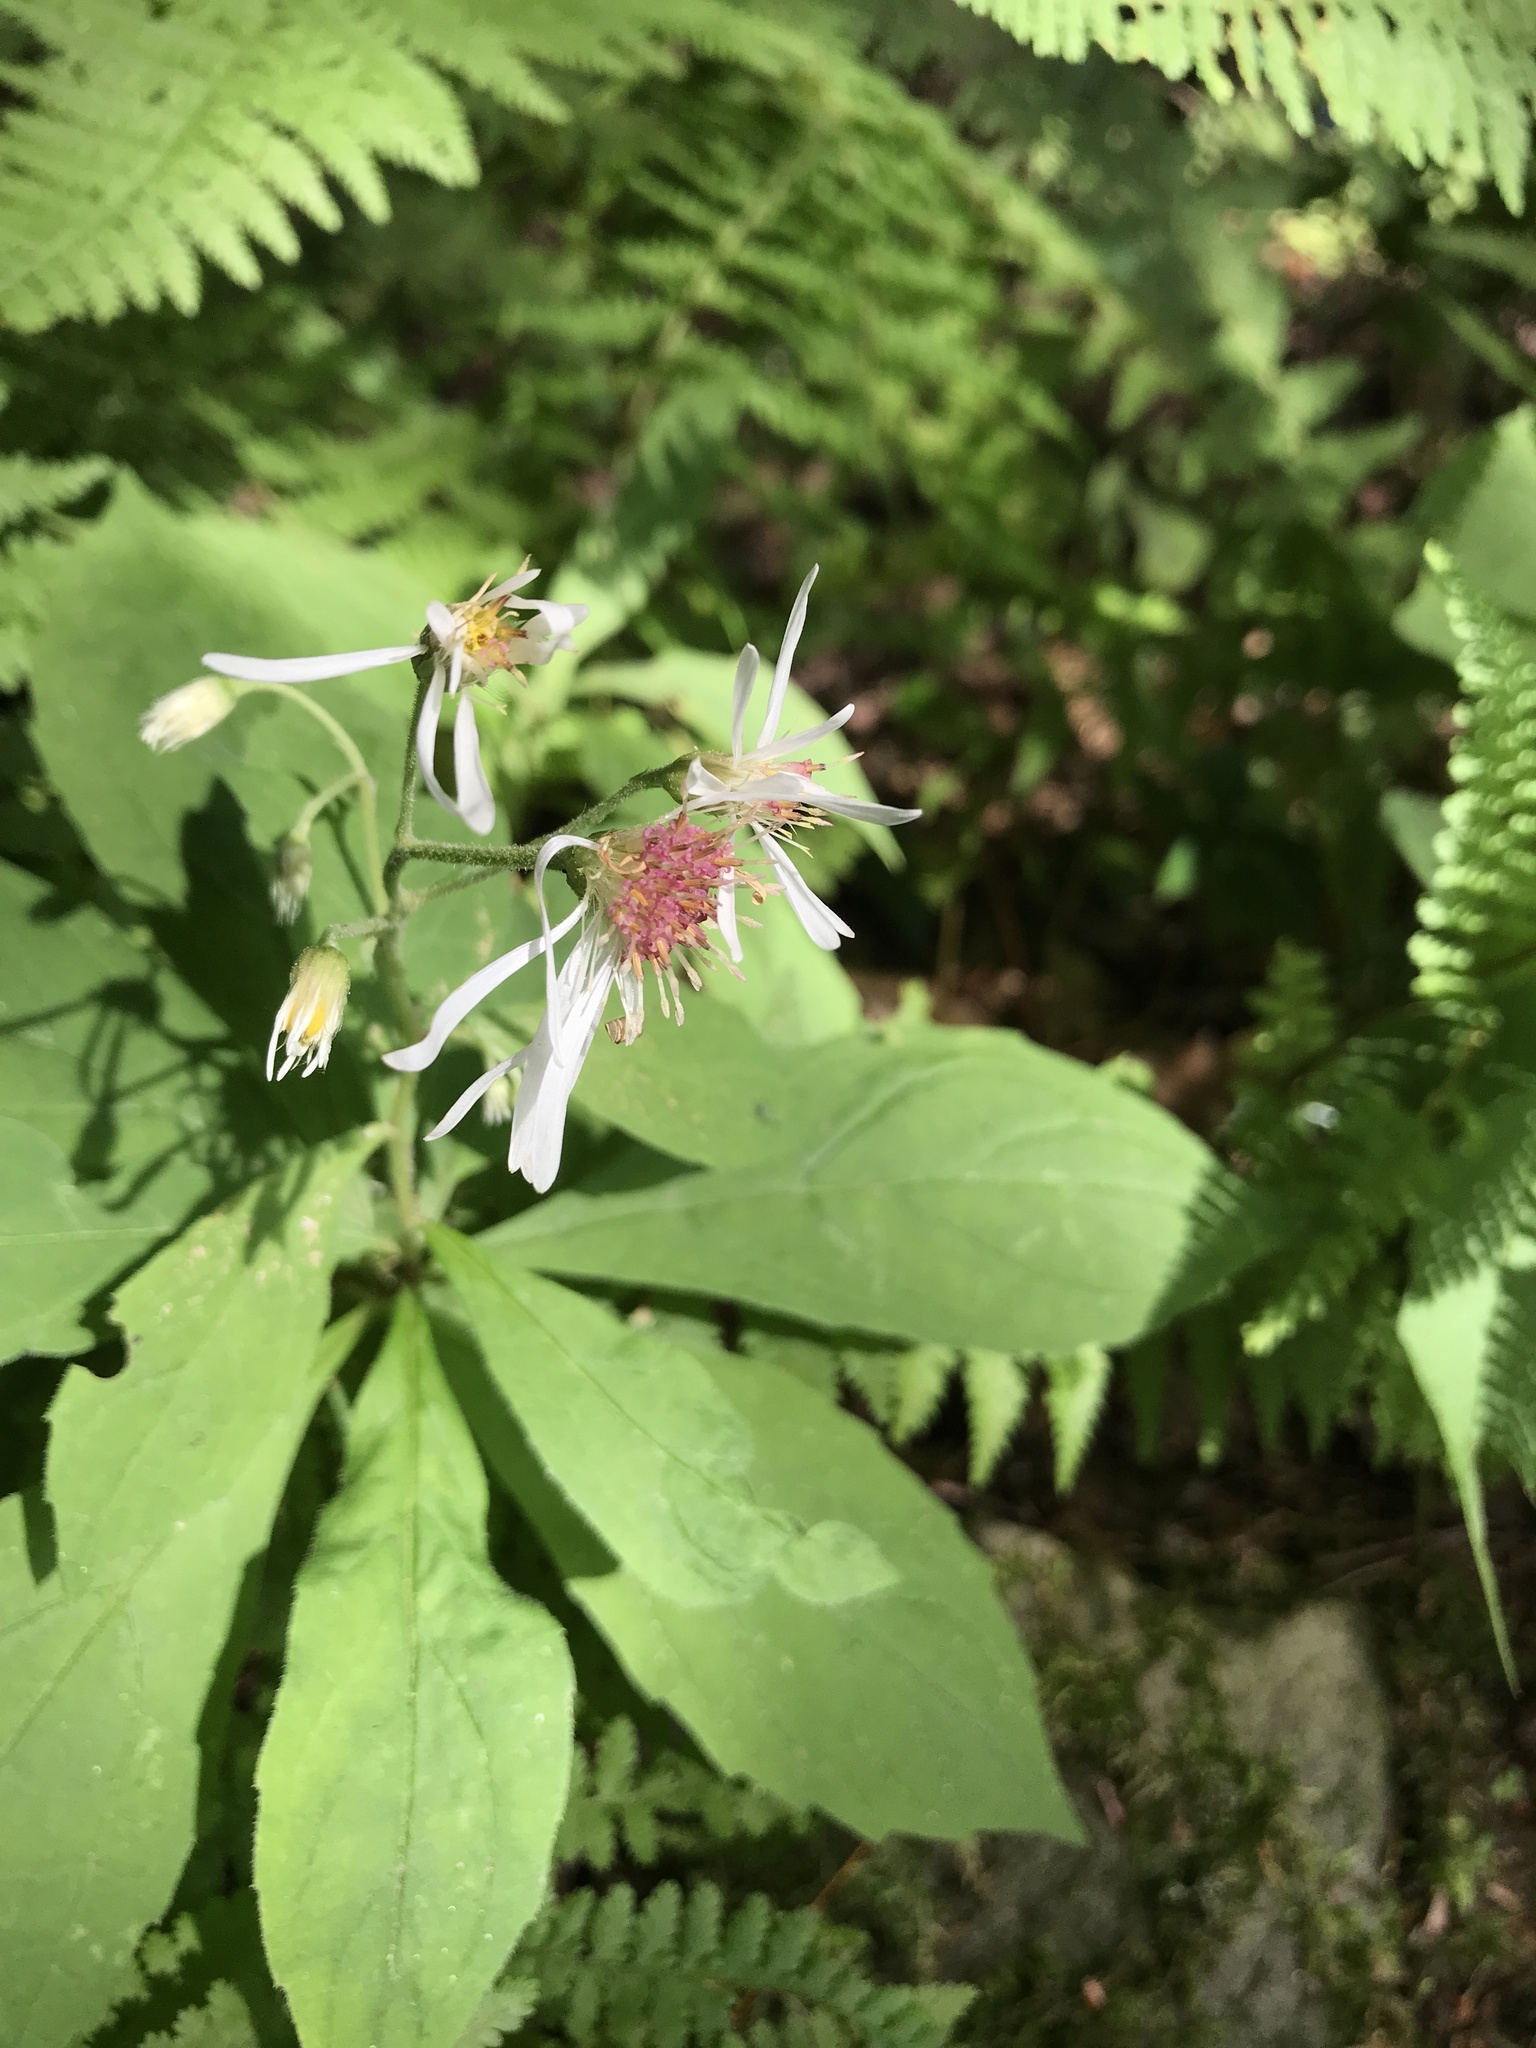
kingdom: Plantae
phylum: Tracheophyta
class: Magnoliopsida
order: Asterales
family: Asteraceae
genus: Oclemena
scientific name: Oclemena acuminata
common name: Mountain aster
